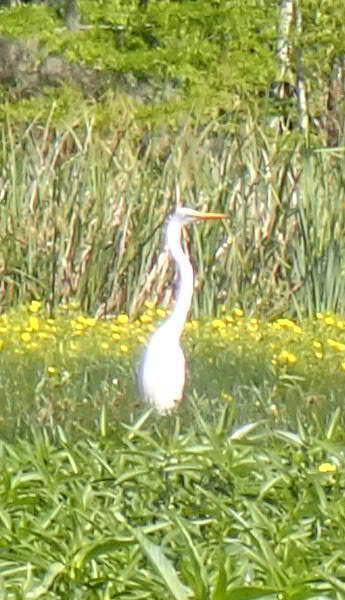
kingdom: Animalia
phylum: Chordata
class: Aves
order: Pelecaniformes
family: Ardeidae
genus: Ardea
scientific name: Ardea alba
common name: Great egret
